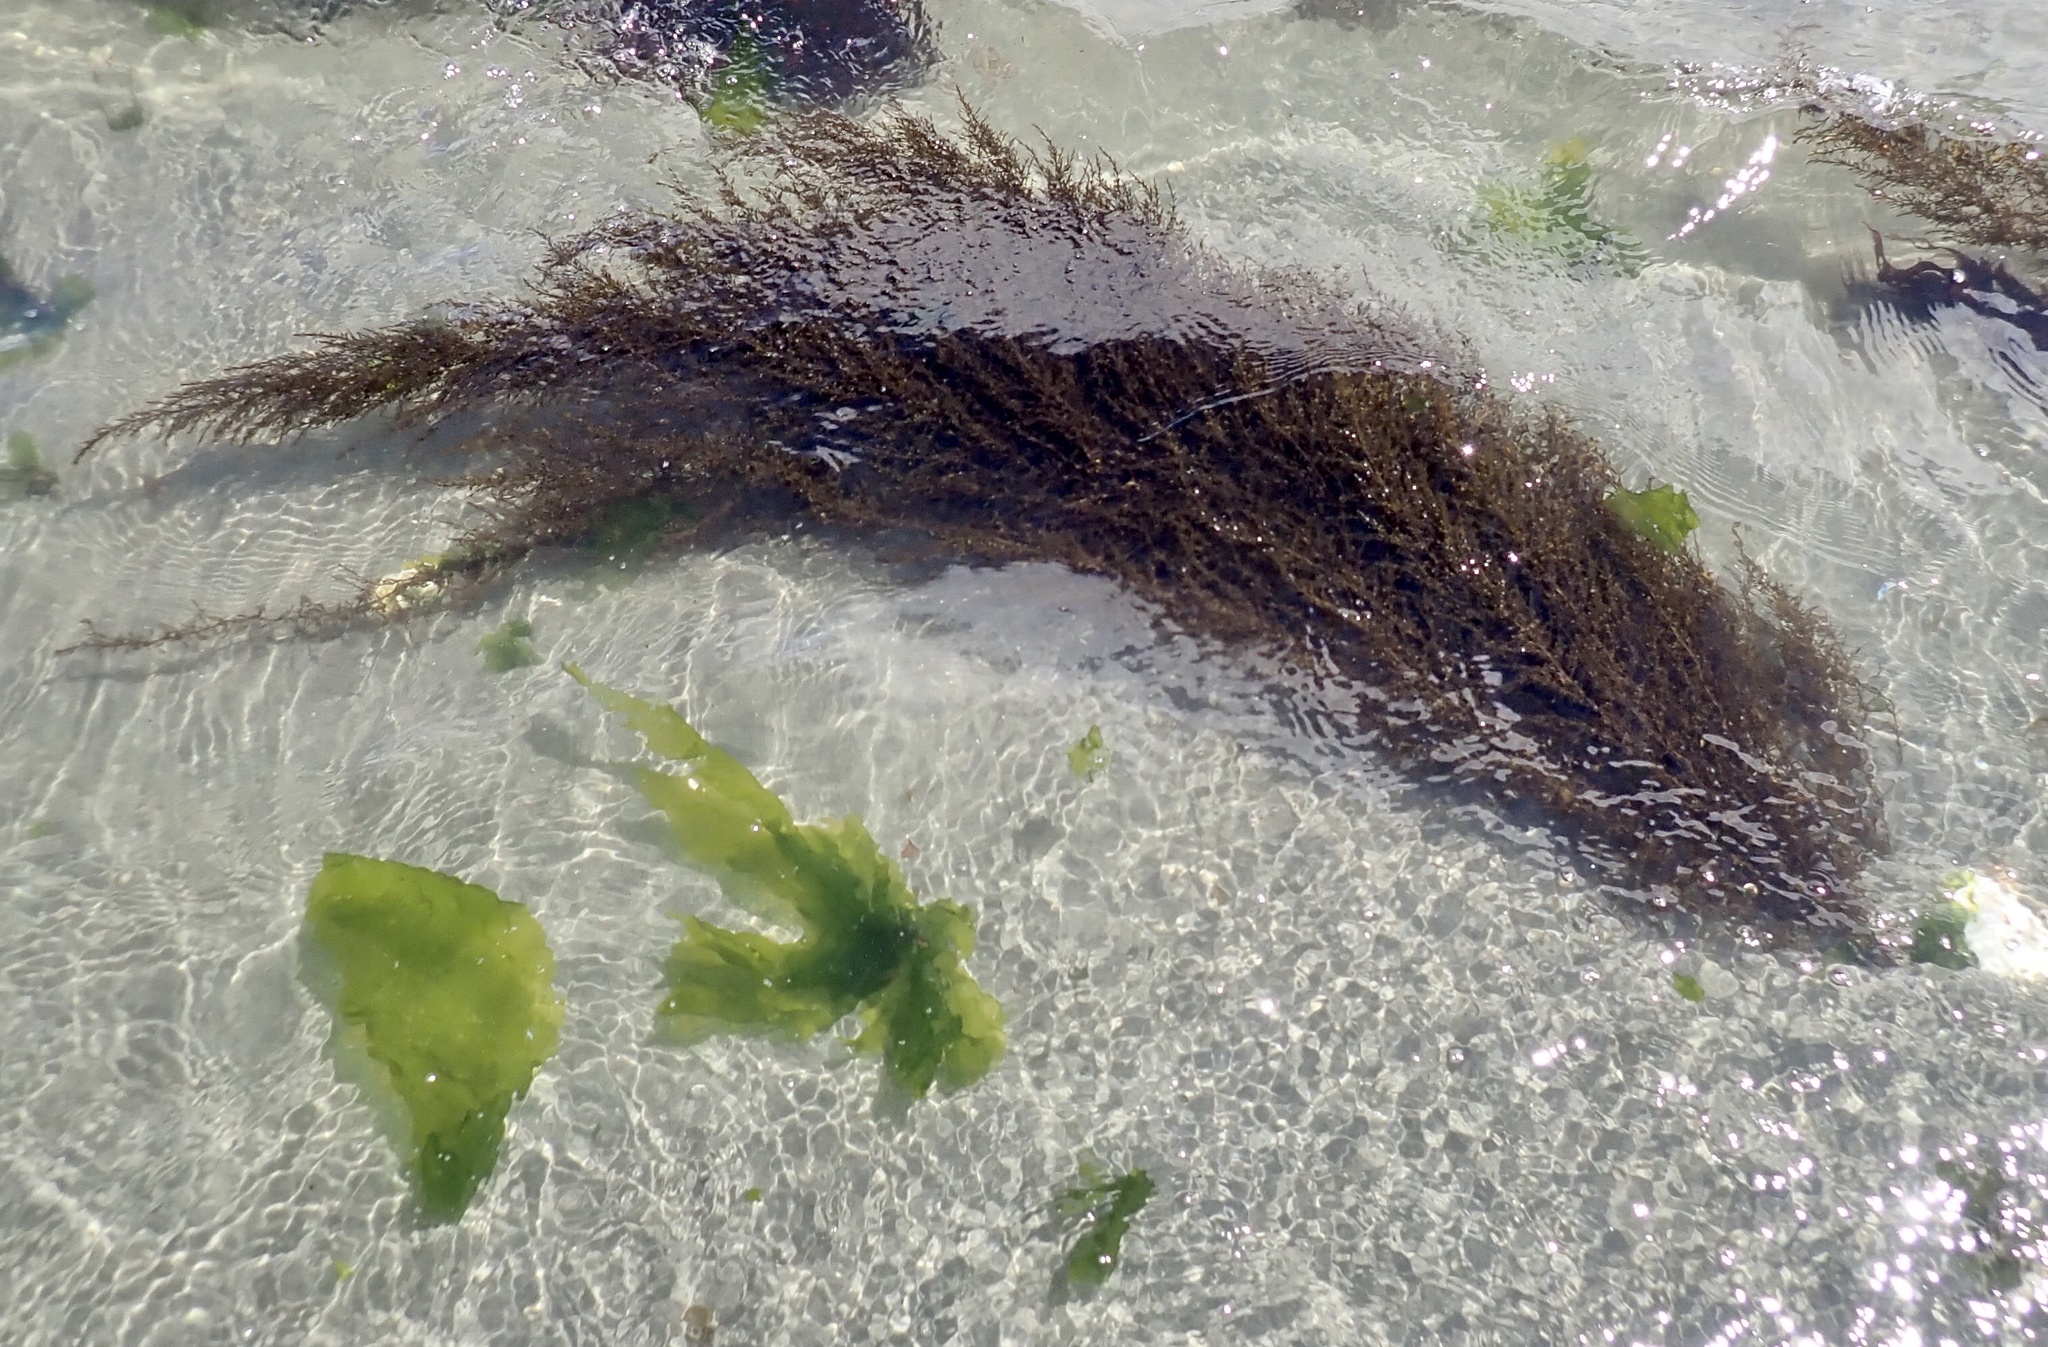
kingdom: Chromista
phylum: Ochrophyta
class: Phaeophyceae
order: Fucales
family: Sargassaceae
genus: Sargassum
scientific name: Sargassum muticum
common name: Japweed
